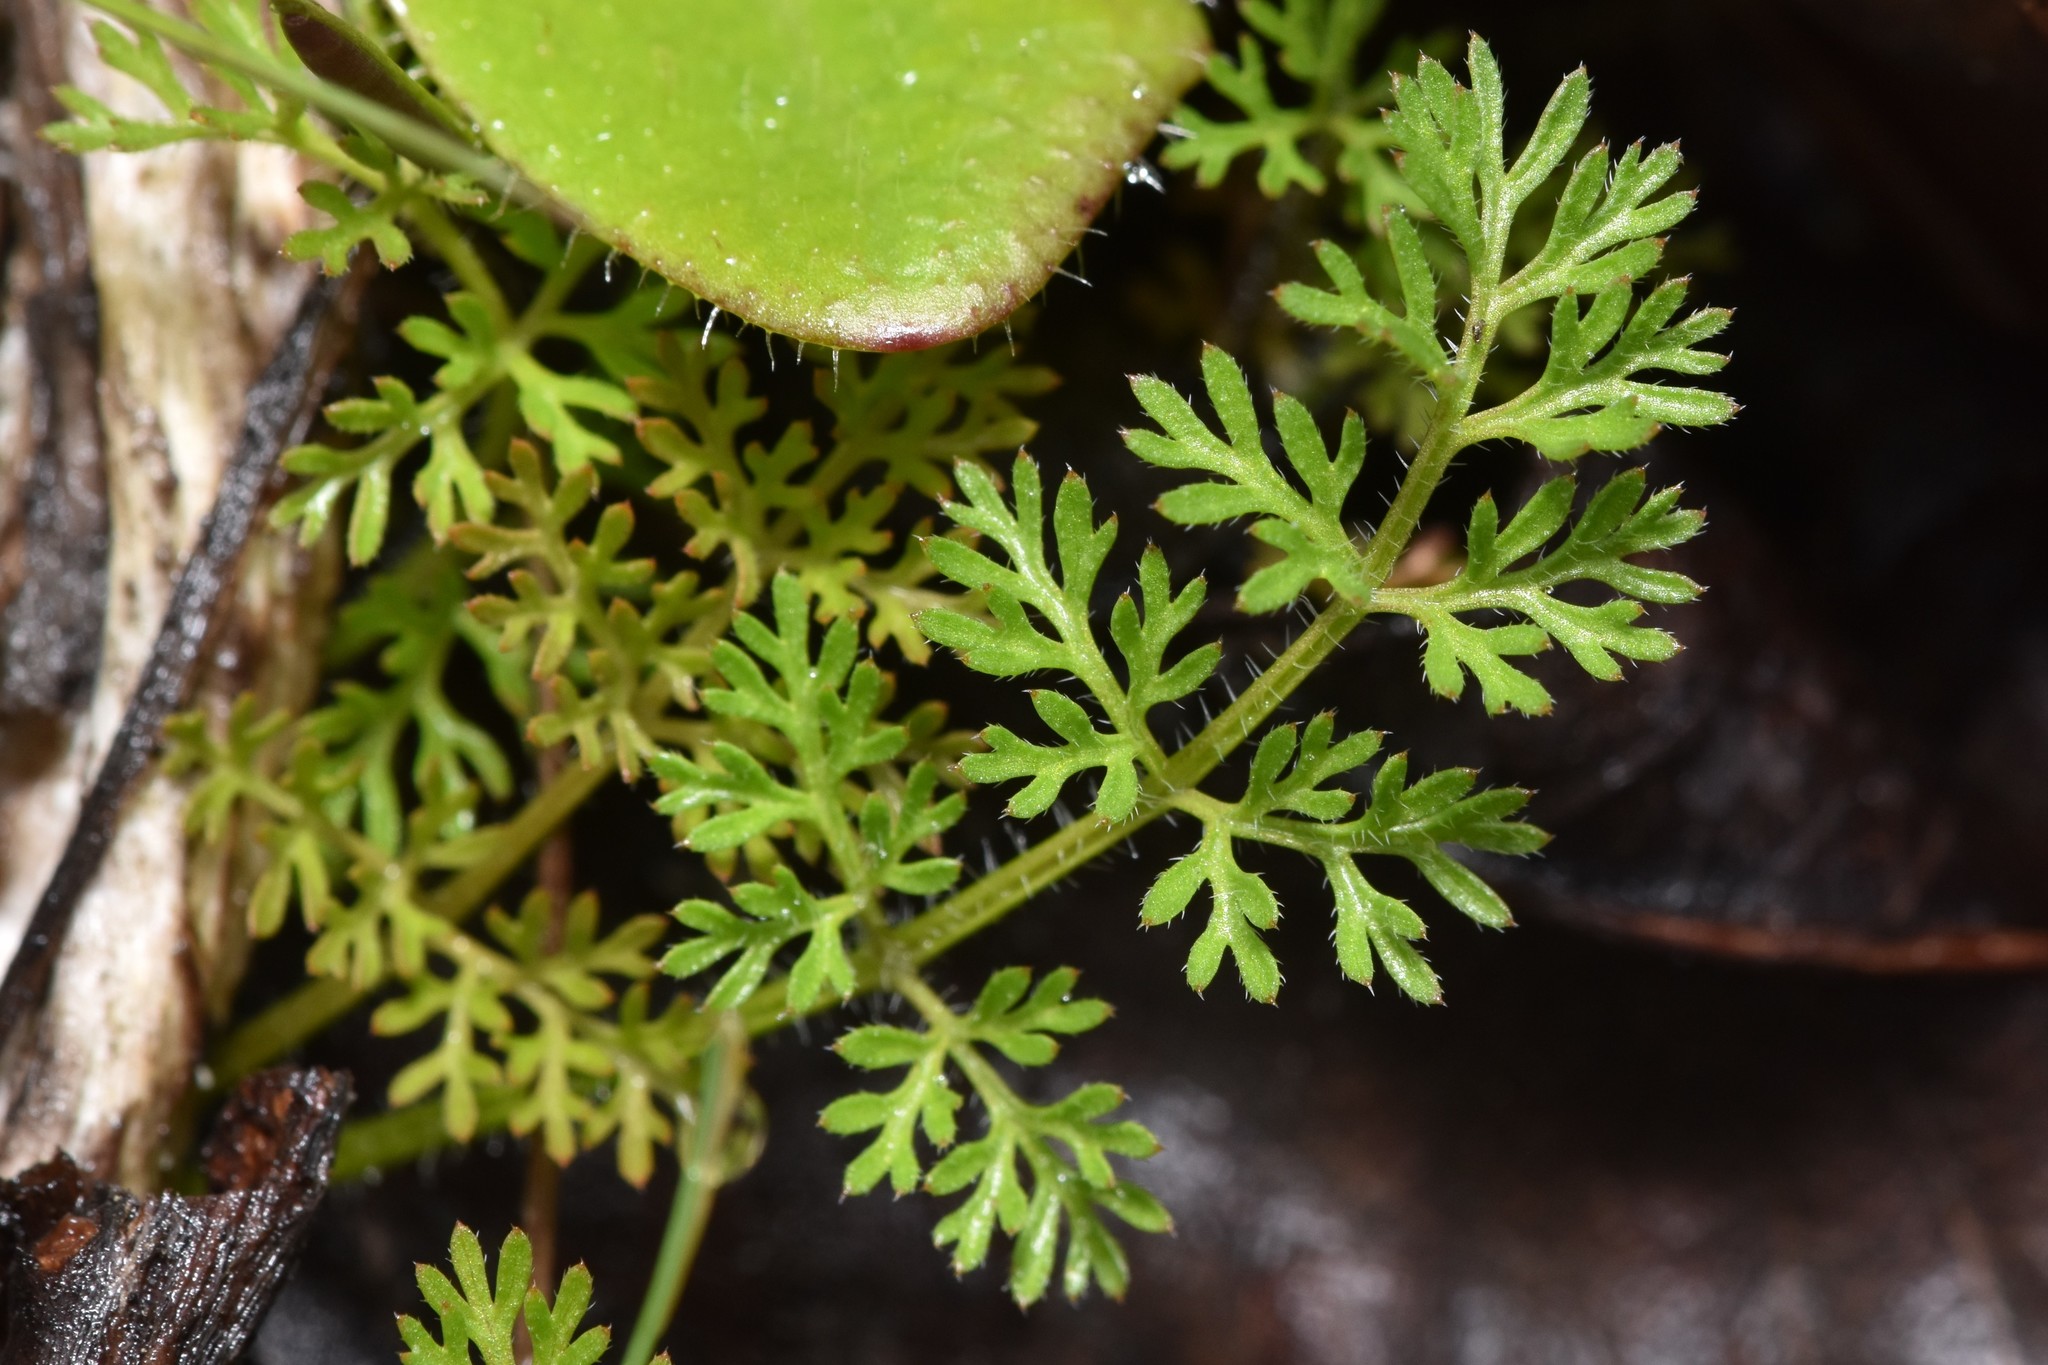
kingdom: Plantae
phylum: Tracheophyta
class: Magnoliopsida
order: Apiales
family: Apiaceae
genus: Daucus
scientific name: Daucus pusillus
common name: Southwest wild carrot
